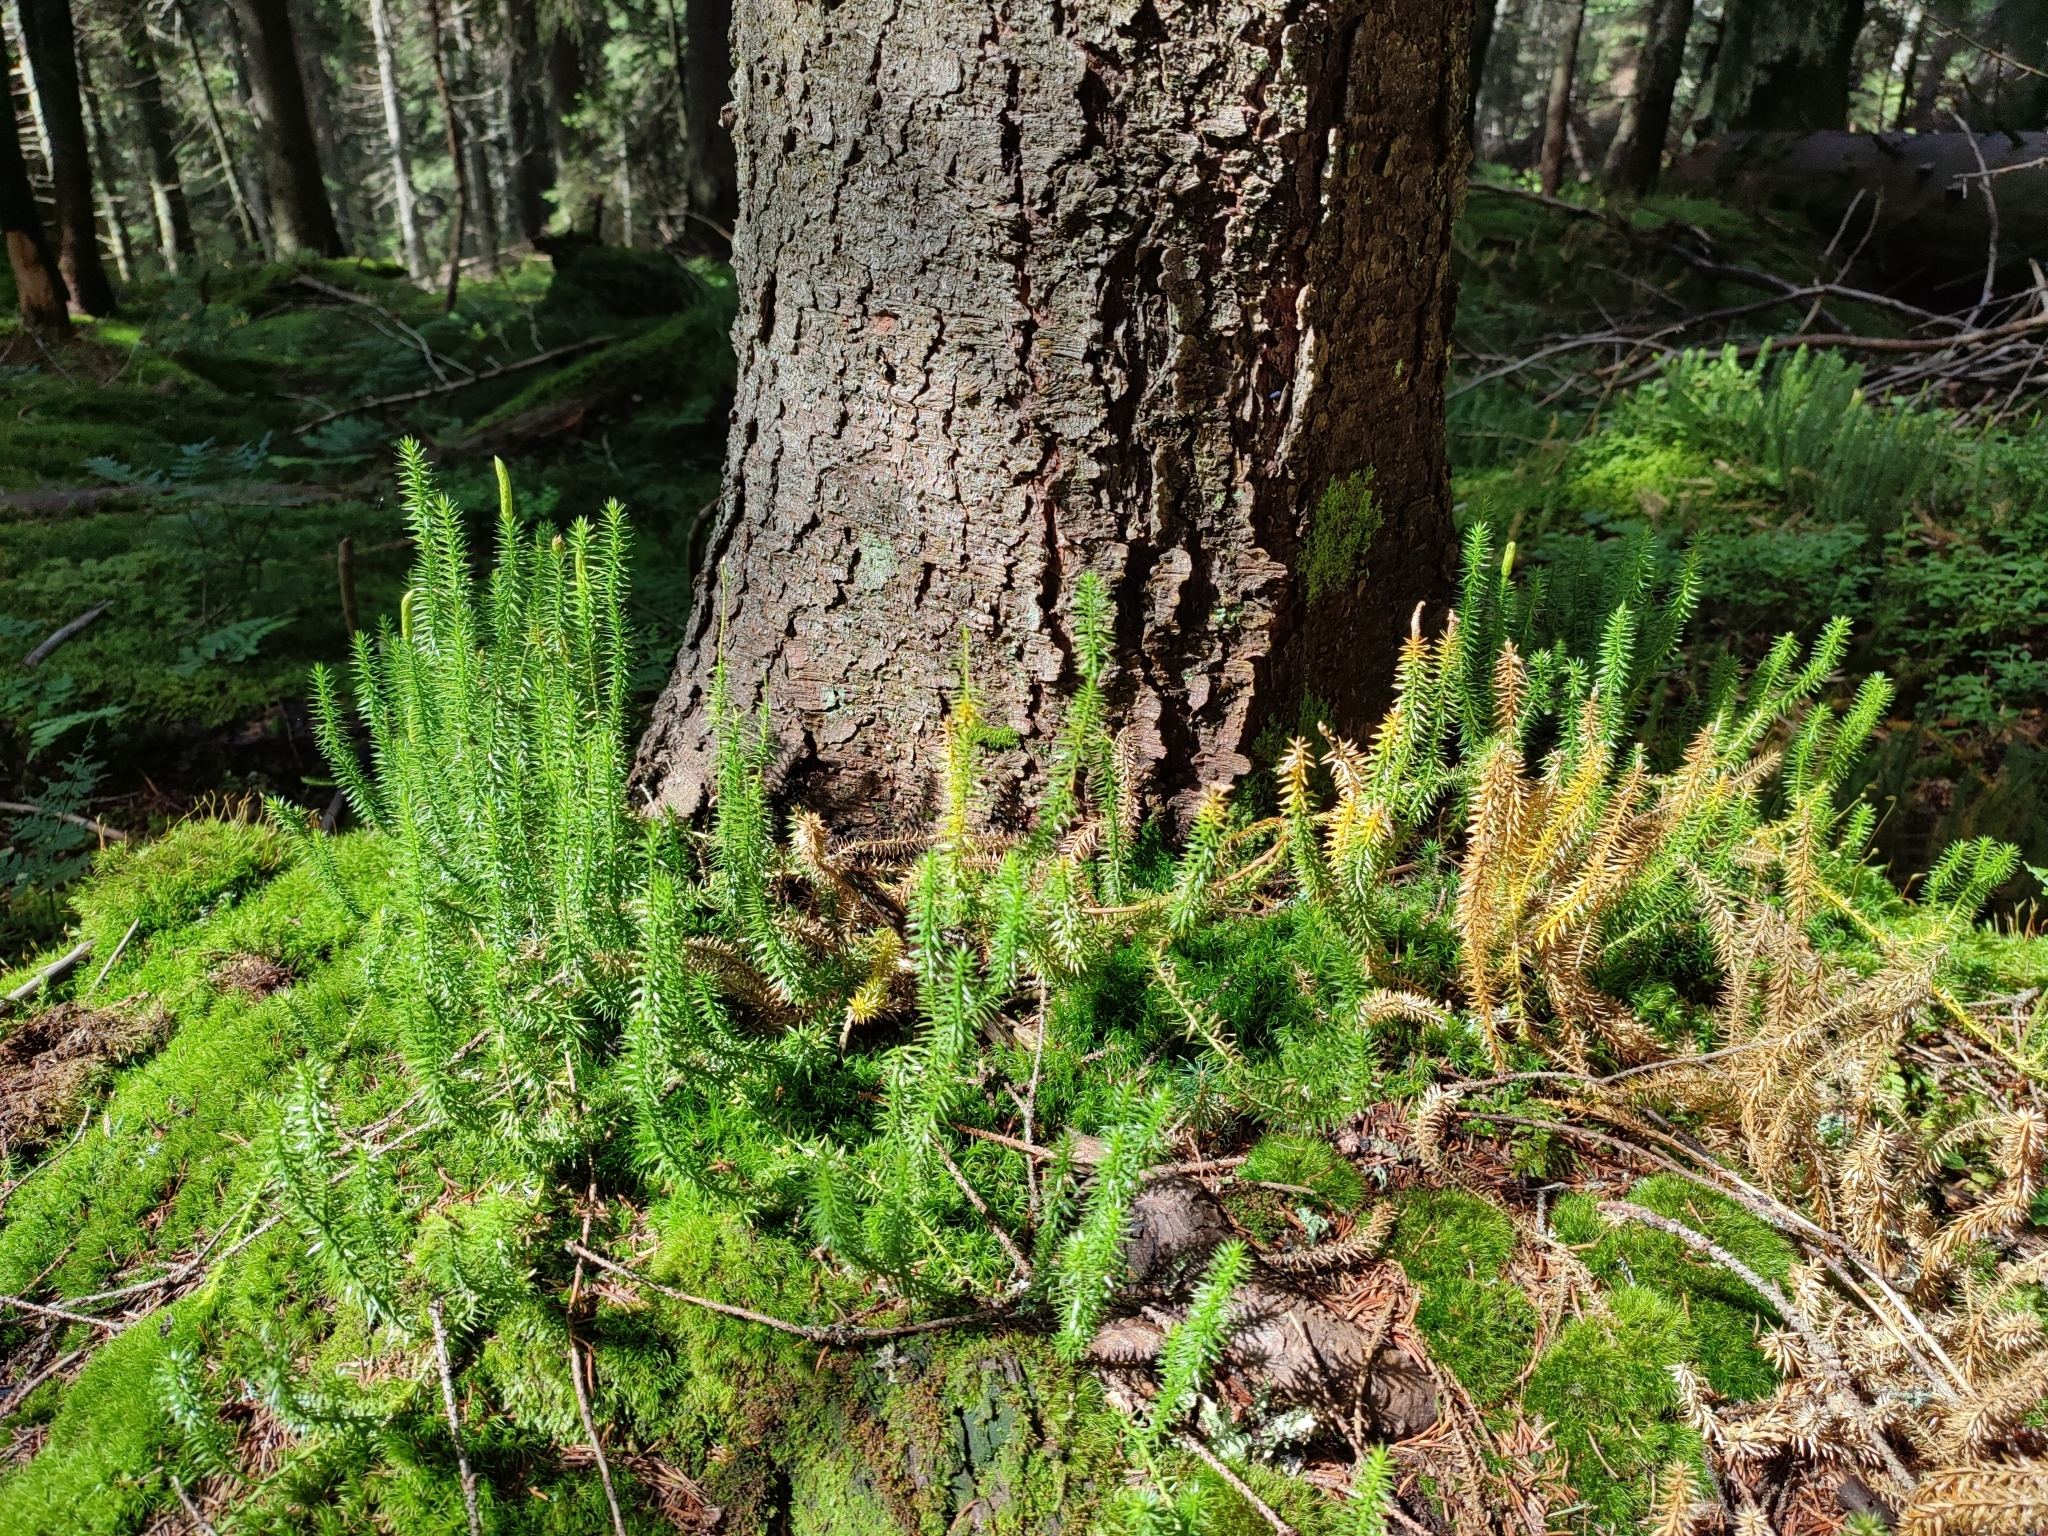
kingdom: Plantae
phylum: Tracheophyta
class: Lycopodiopsida
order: Lycopodiales
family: Lycopodiaceae
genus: Spinulum
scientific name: Spinulum annotinum
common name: Interrupted club-moss
